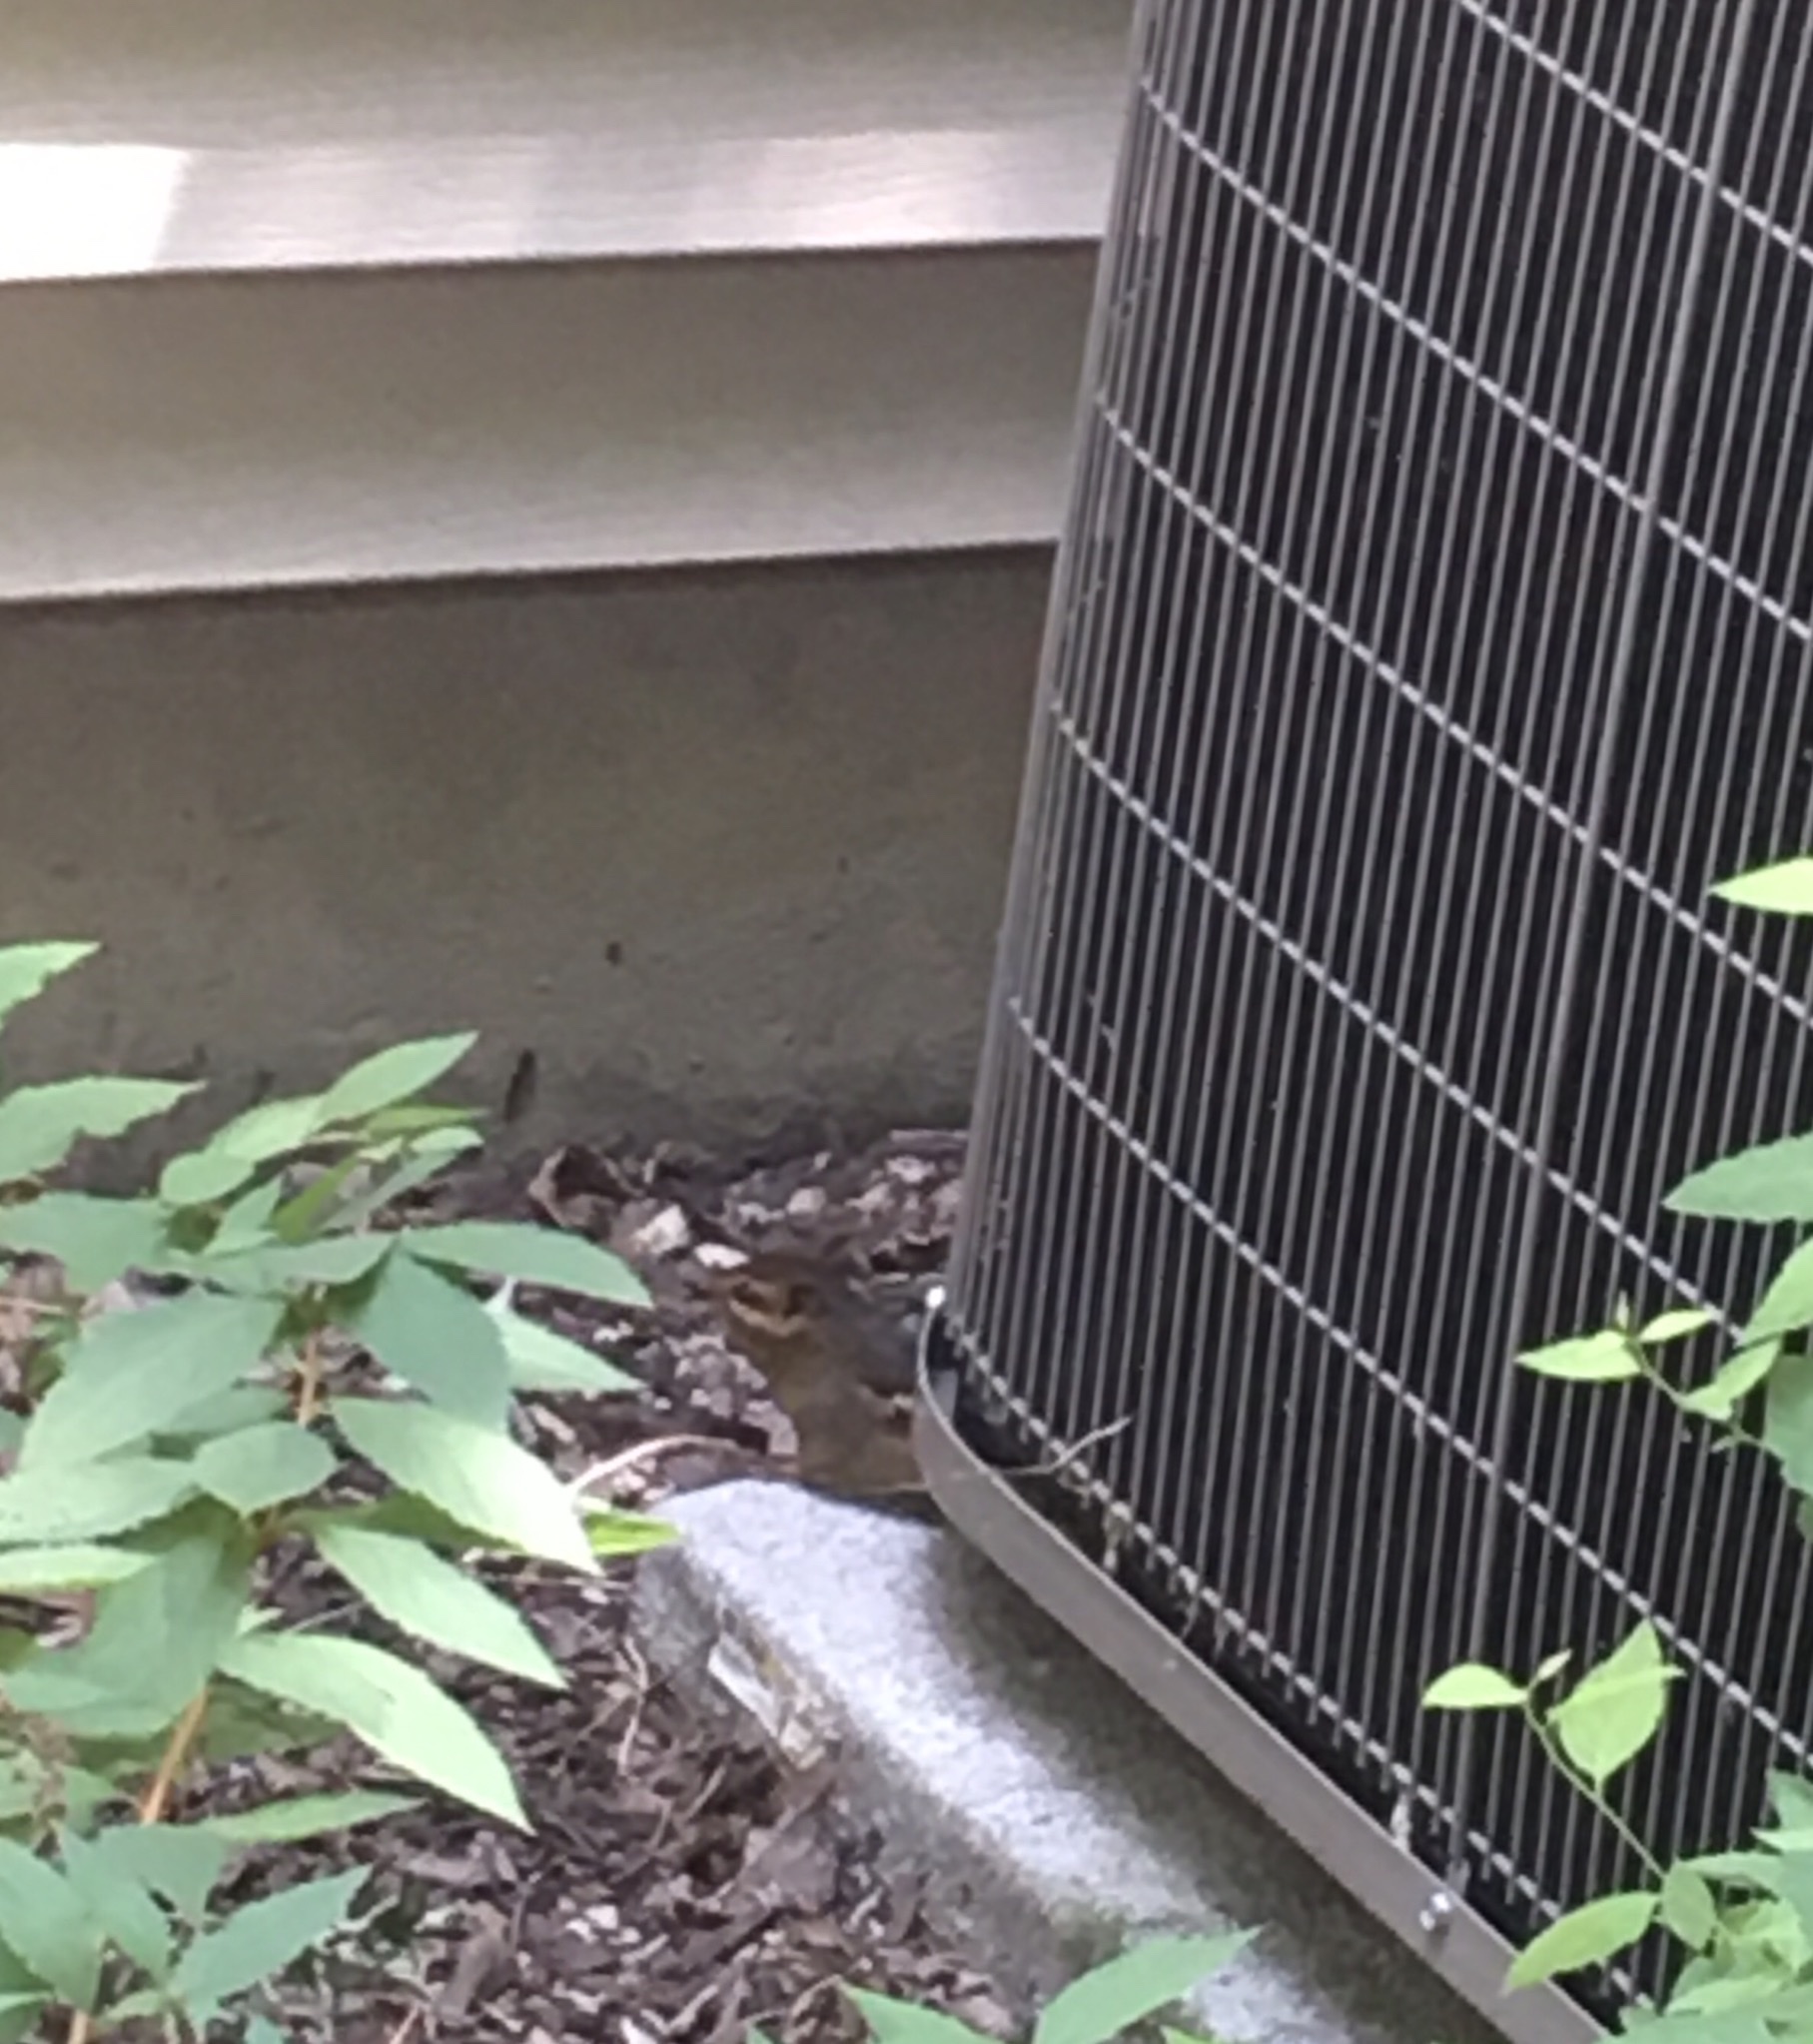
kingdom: Animalia
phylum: Chordata
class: Mammalia
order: Rodentia
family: Sciuridae
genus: Tamias
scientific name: Tamias striatus
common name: Eastern chipmunk
